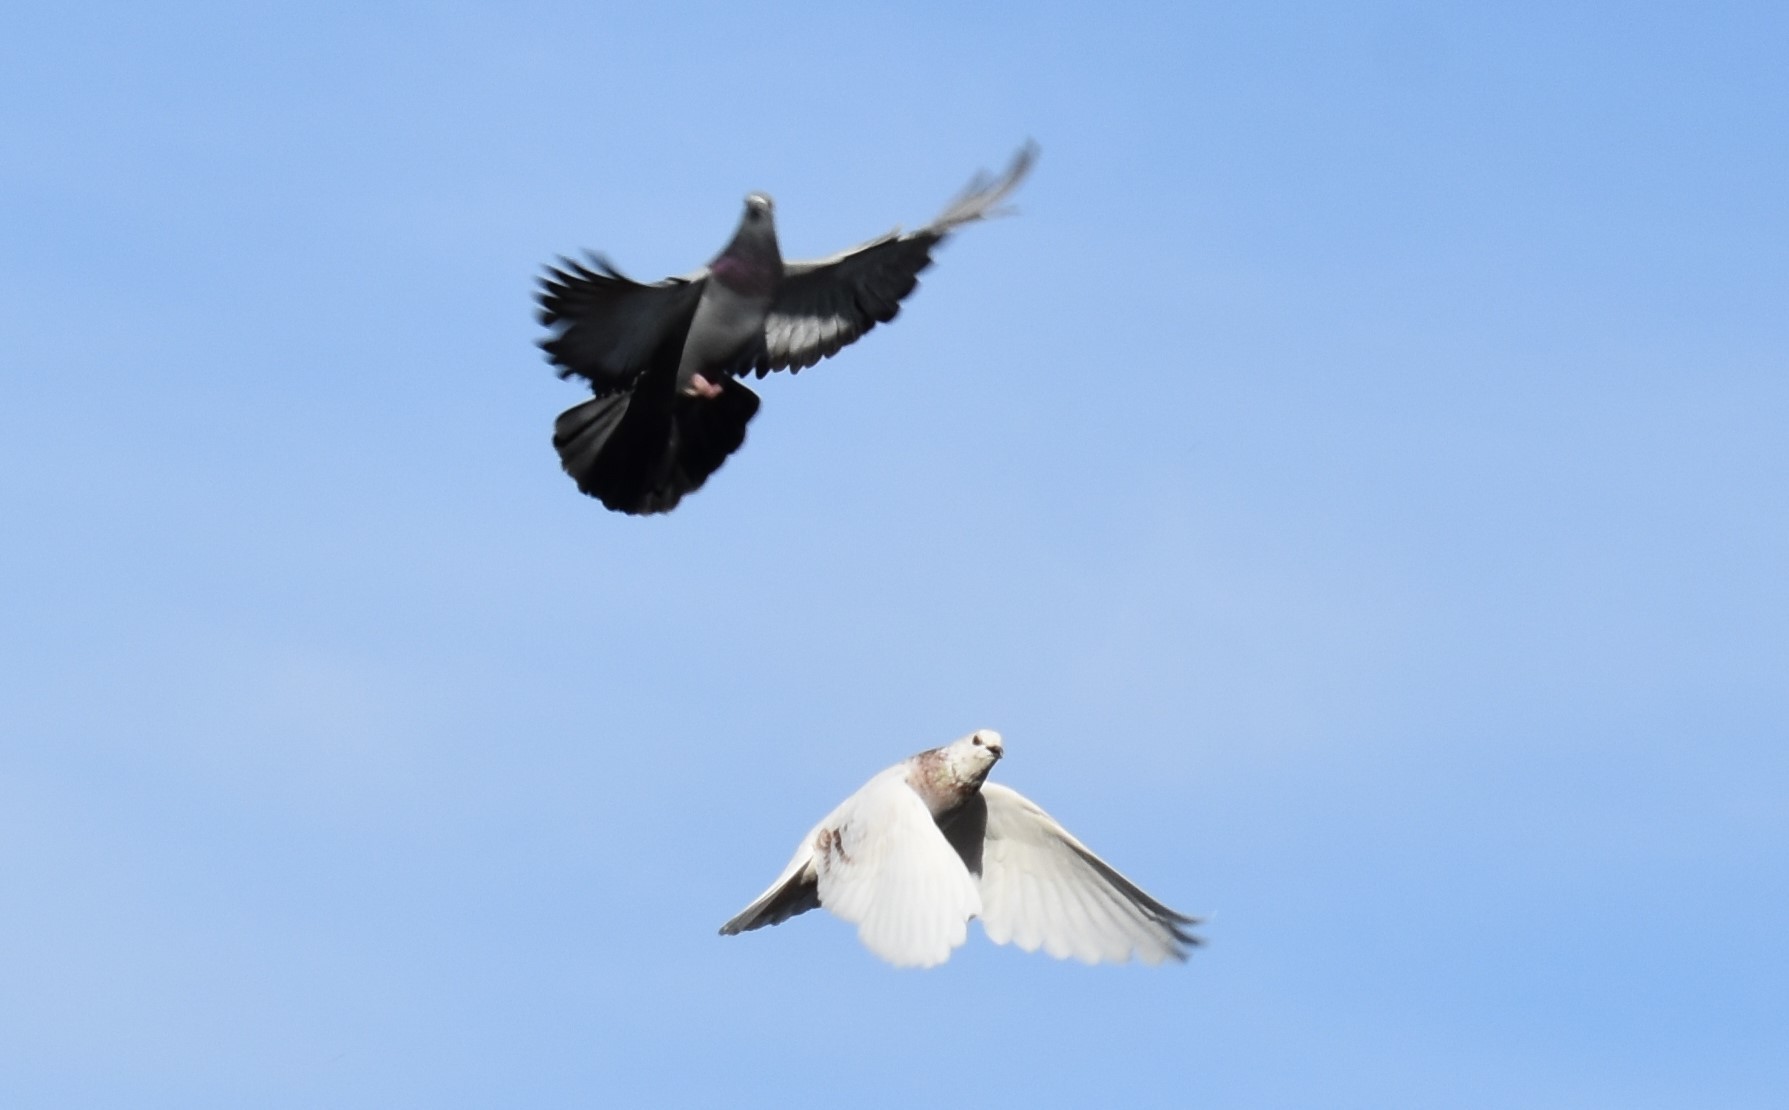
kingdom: Animalia
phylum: Chordata
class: Aves
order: Columbiformes
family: Columbidae
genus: Columba
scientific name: Columba livia
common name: Rock pigeon
